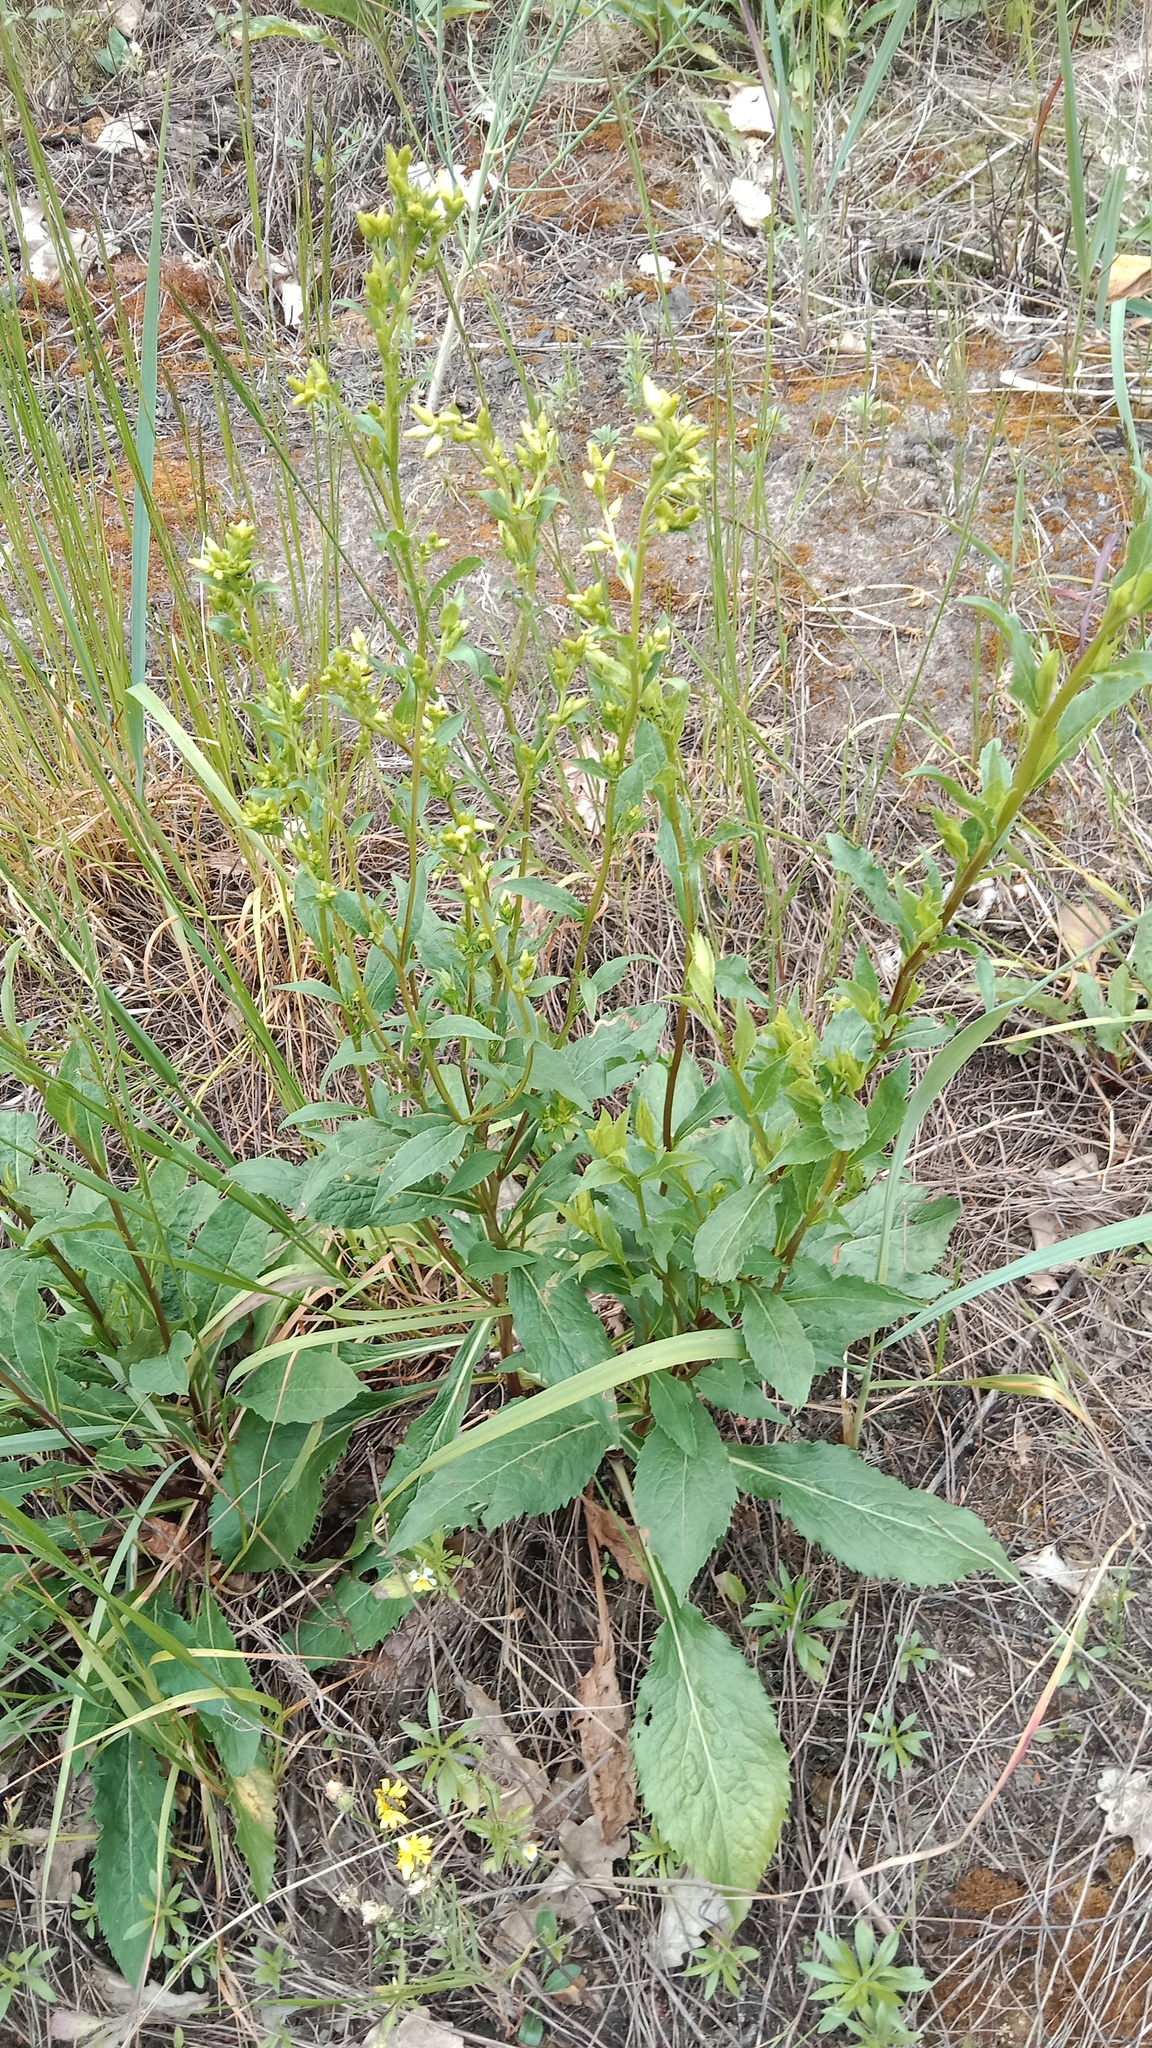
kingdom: Plantae
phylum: Tracheophyta
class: Magnoliopsida
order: Asterales
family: Asteraceae
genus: Solidago
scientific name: Solidago virgaurea
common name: Goldenrod
